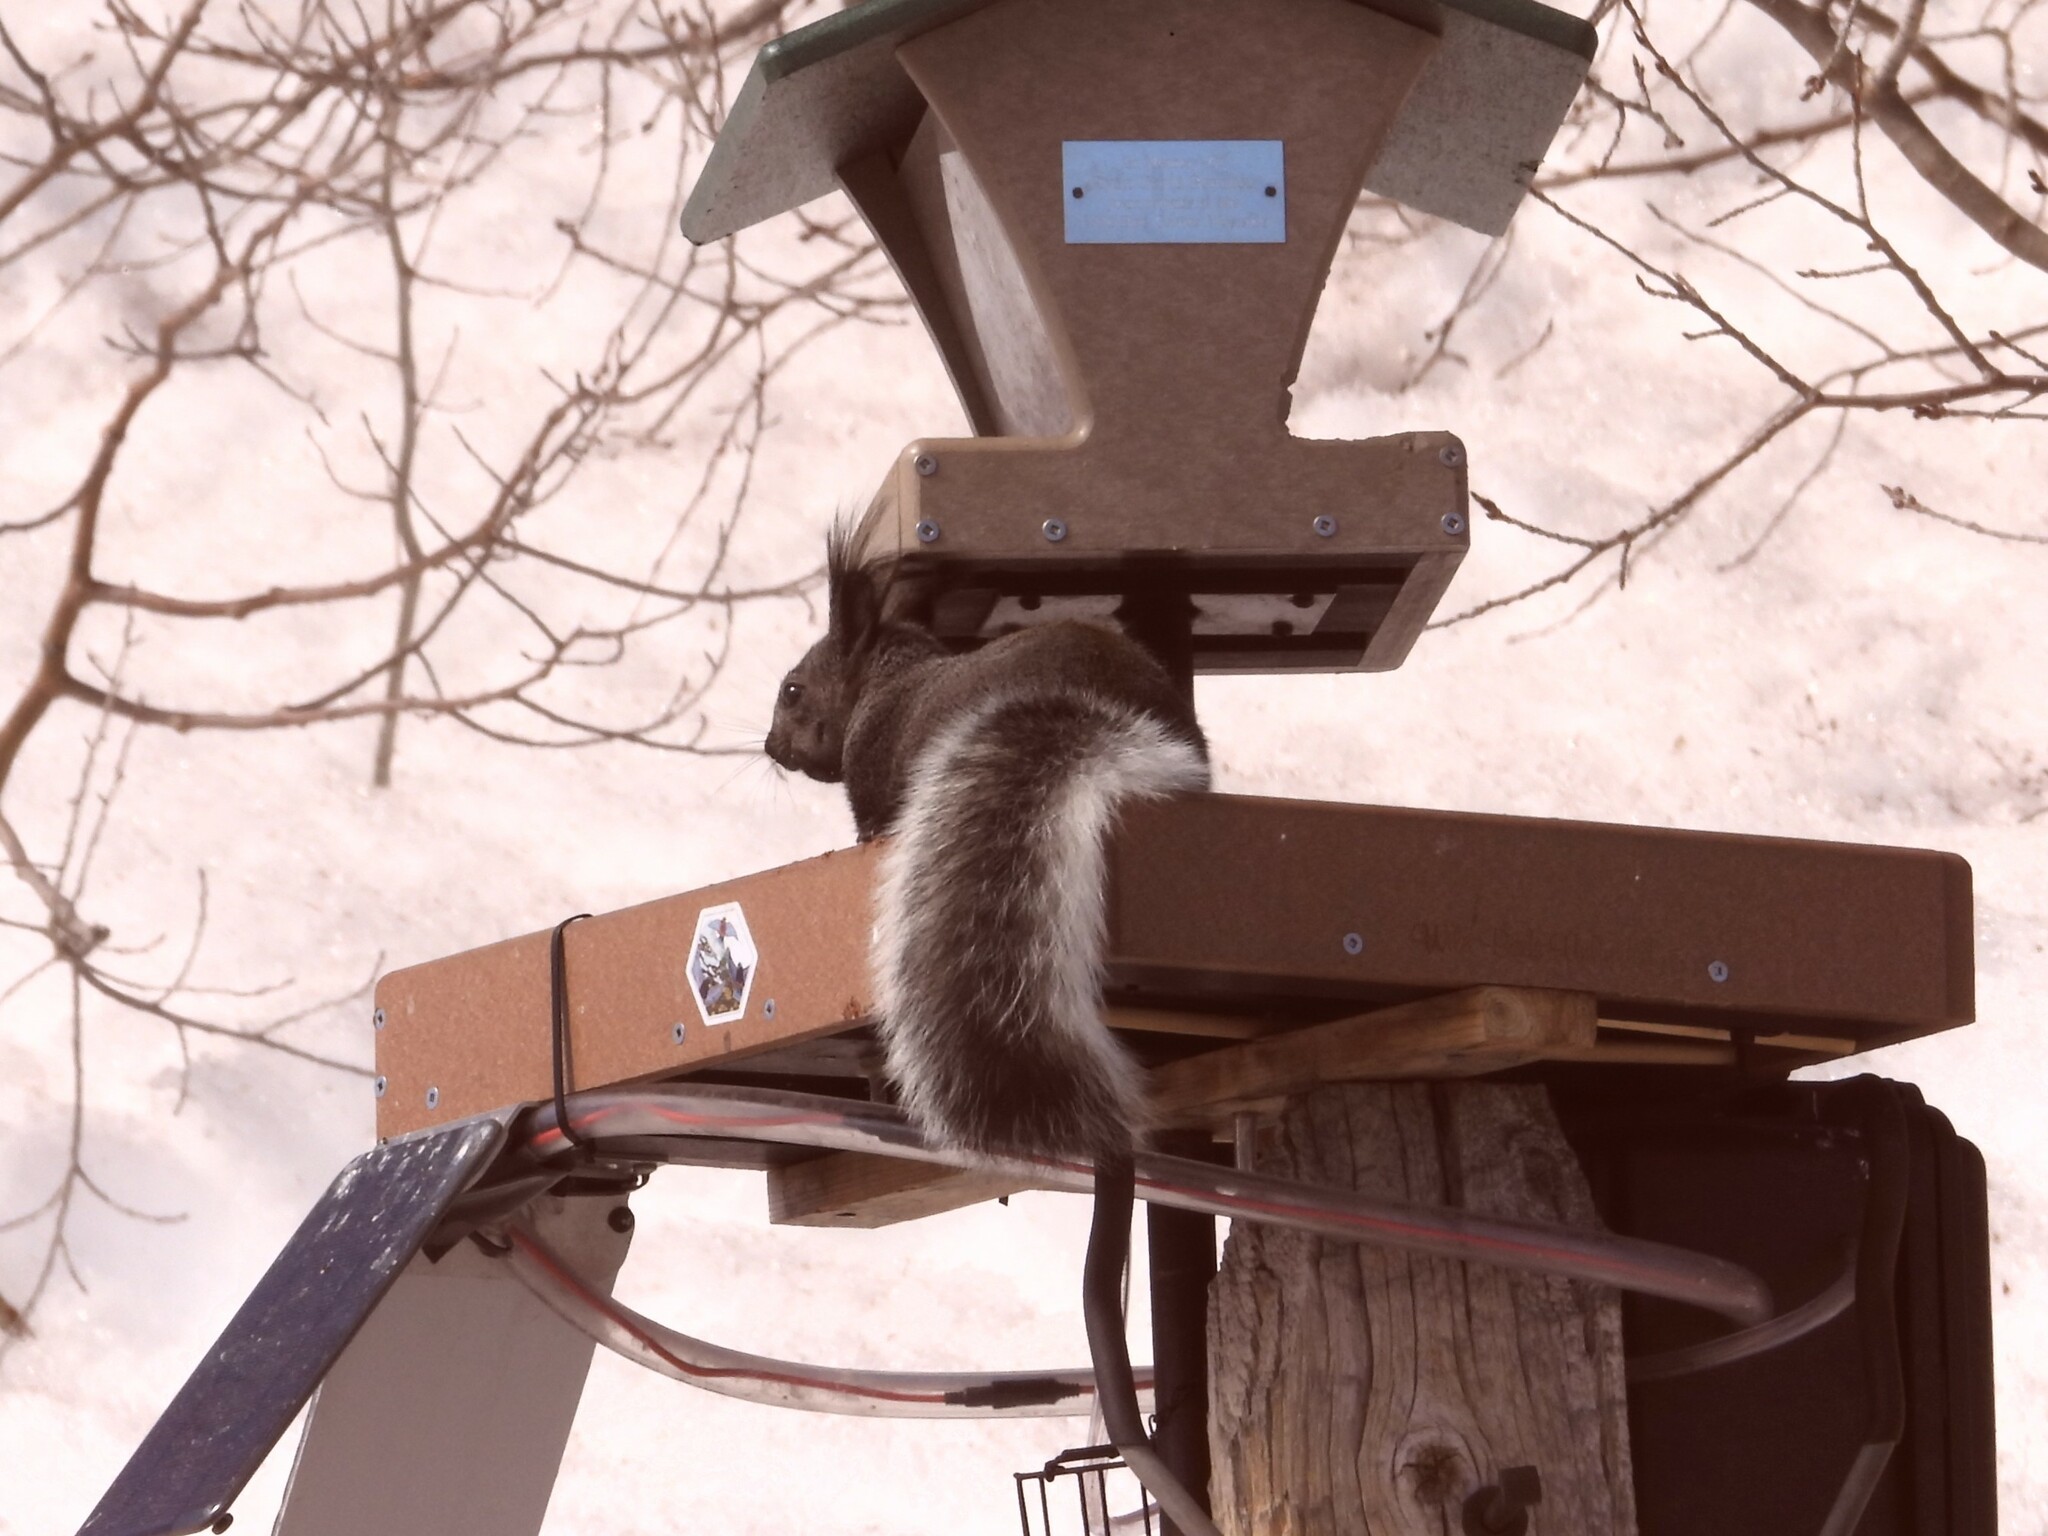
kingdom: Animalia
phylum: Chordata
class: Mammalia
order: Rodentia
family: Sciuridae
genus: Sciurus
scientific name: Sciurus aberti
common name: Abert's squirrel
